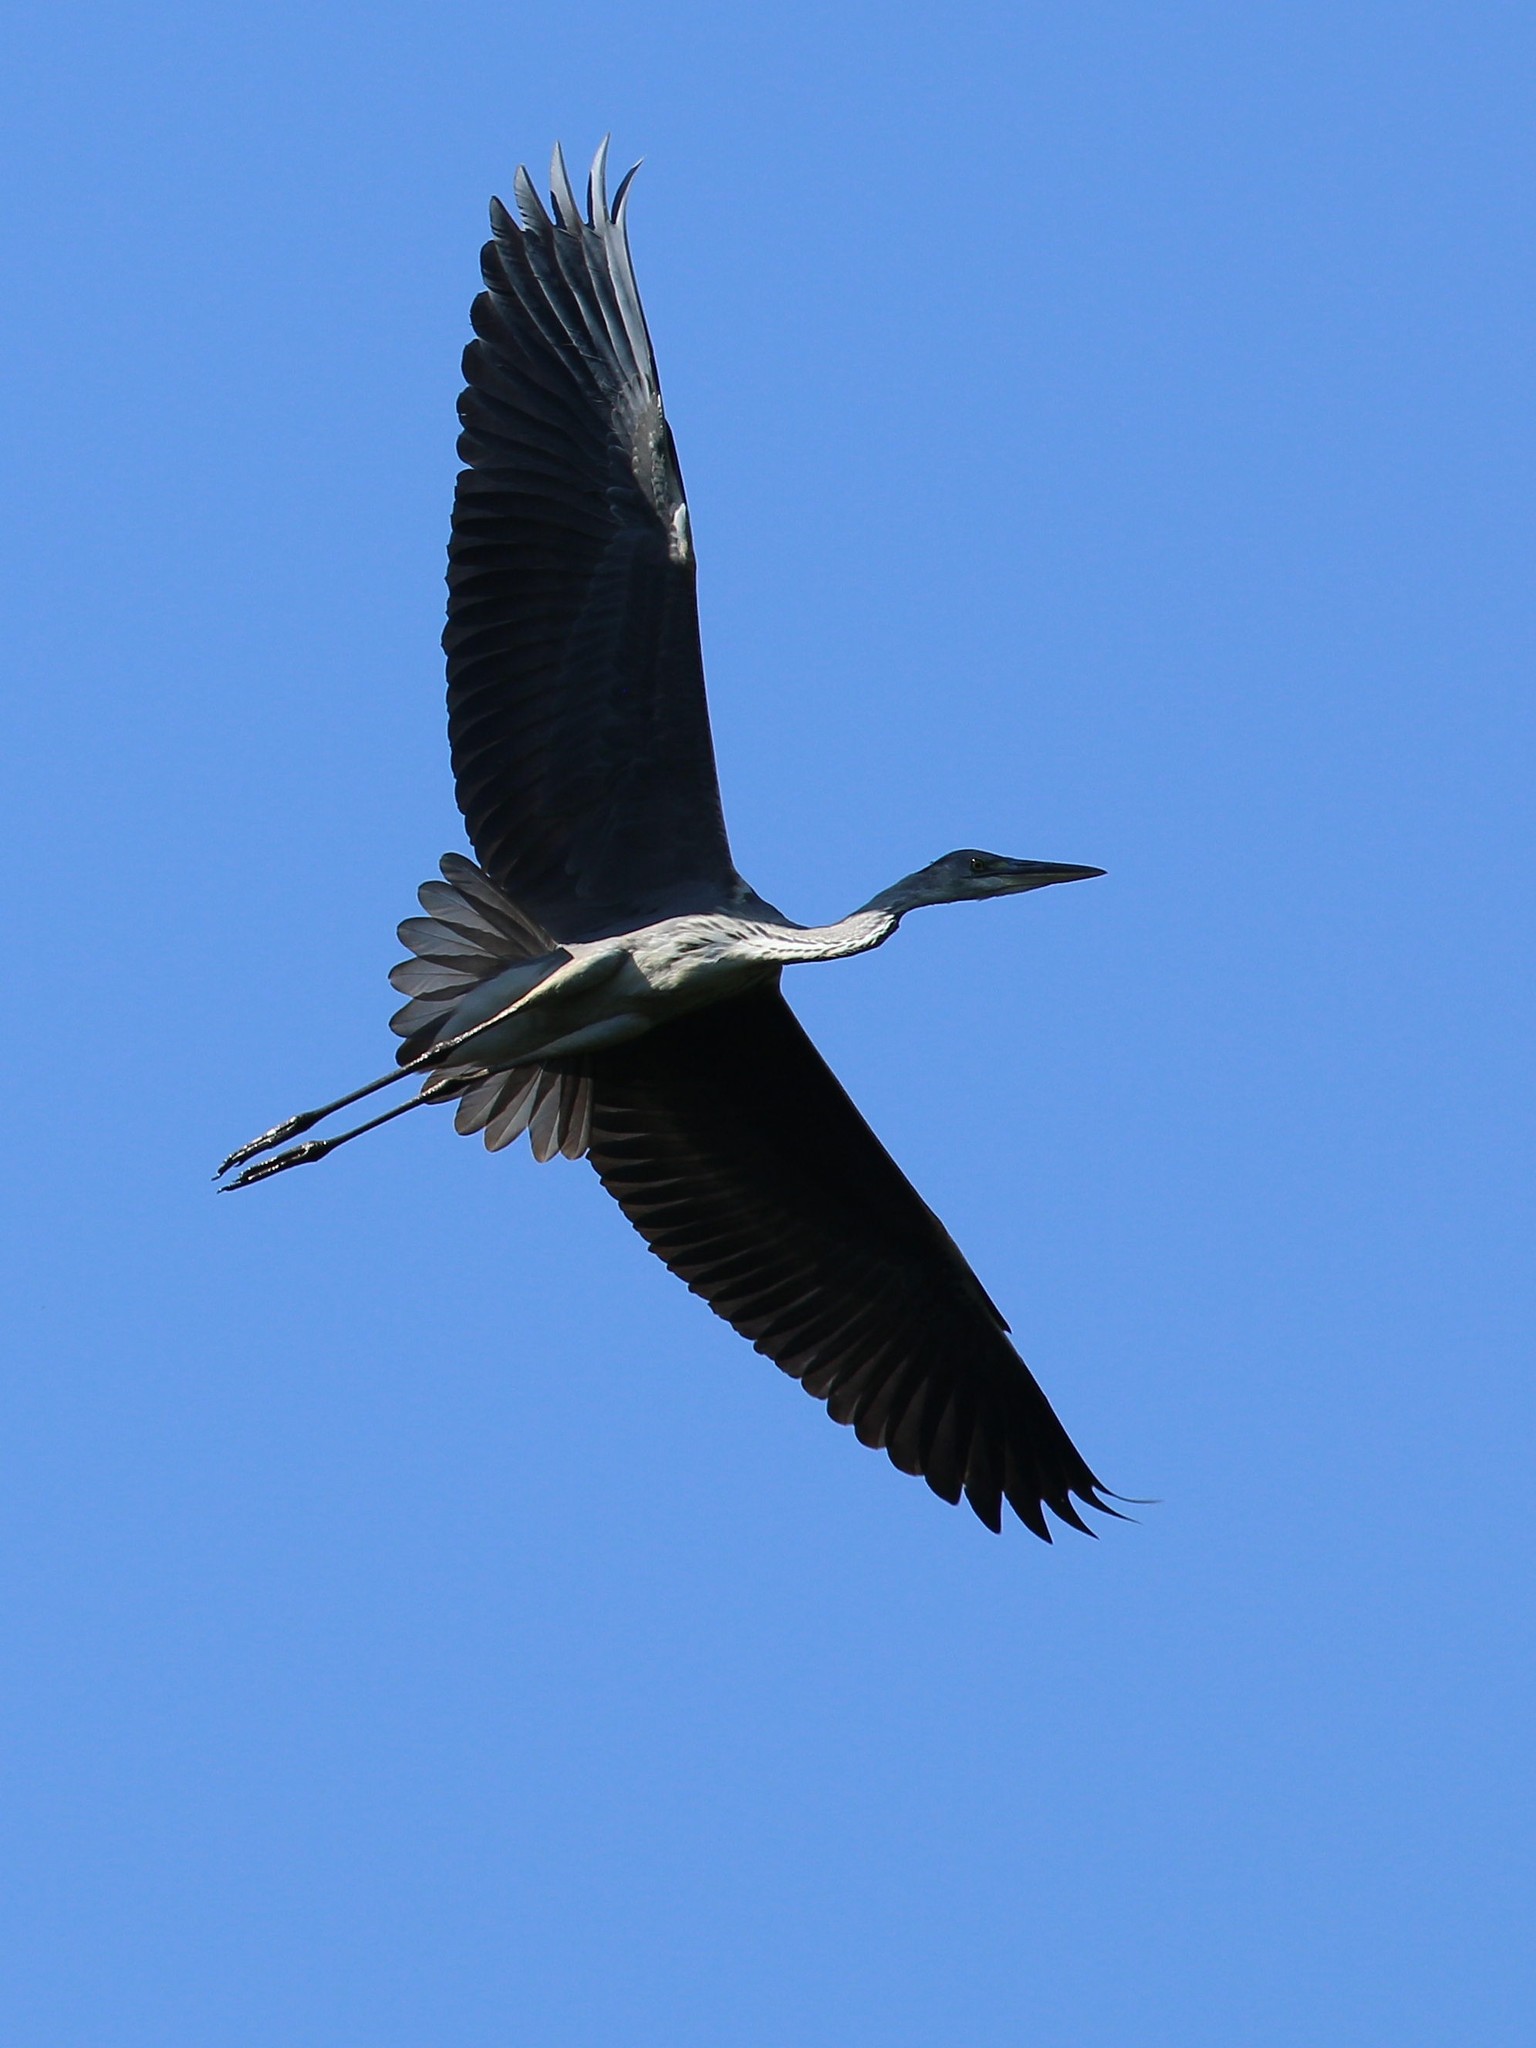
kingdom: Animalia
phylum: Chordata
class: Aves
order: Pelecaniformes
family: Ardeidae
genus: Ardea
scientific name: Ardea cinerea
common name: Grey heron
